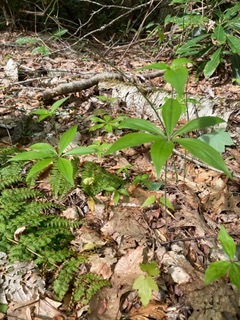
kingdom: Plantae
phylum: Tracheophyta
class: Liliopsida
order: Liliales
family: Liliaceae
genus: Medeola
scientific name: Medeola virginiana
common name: Indian cucumber-root
